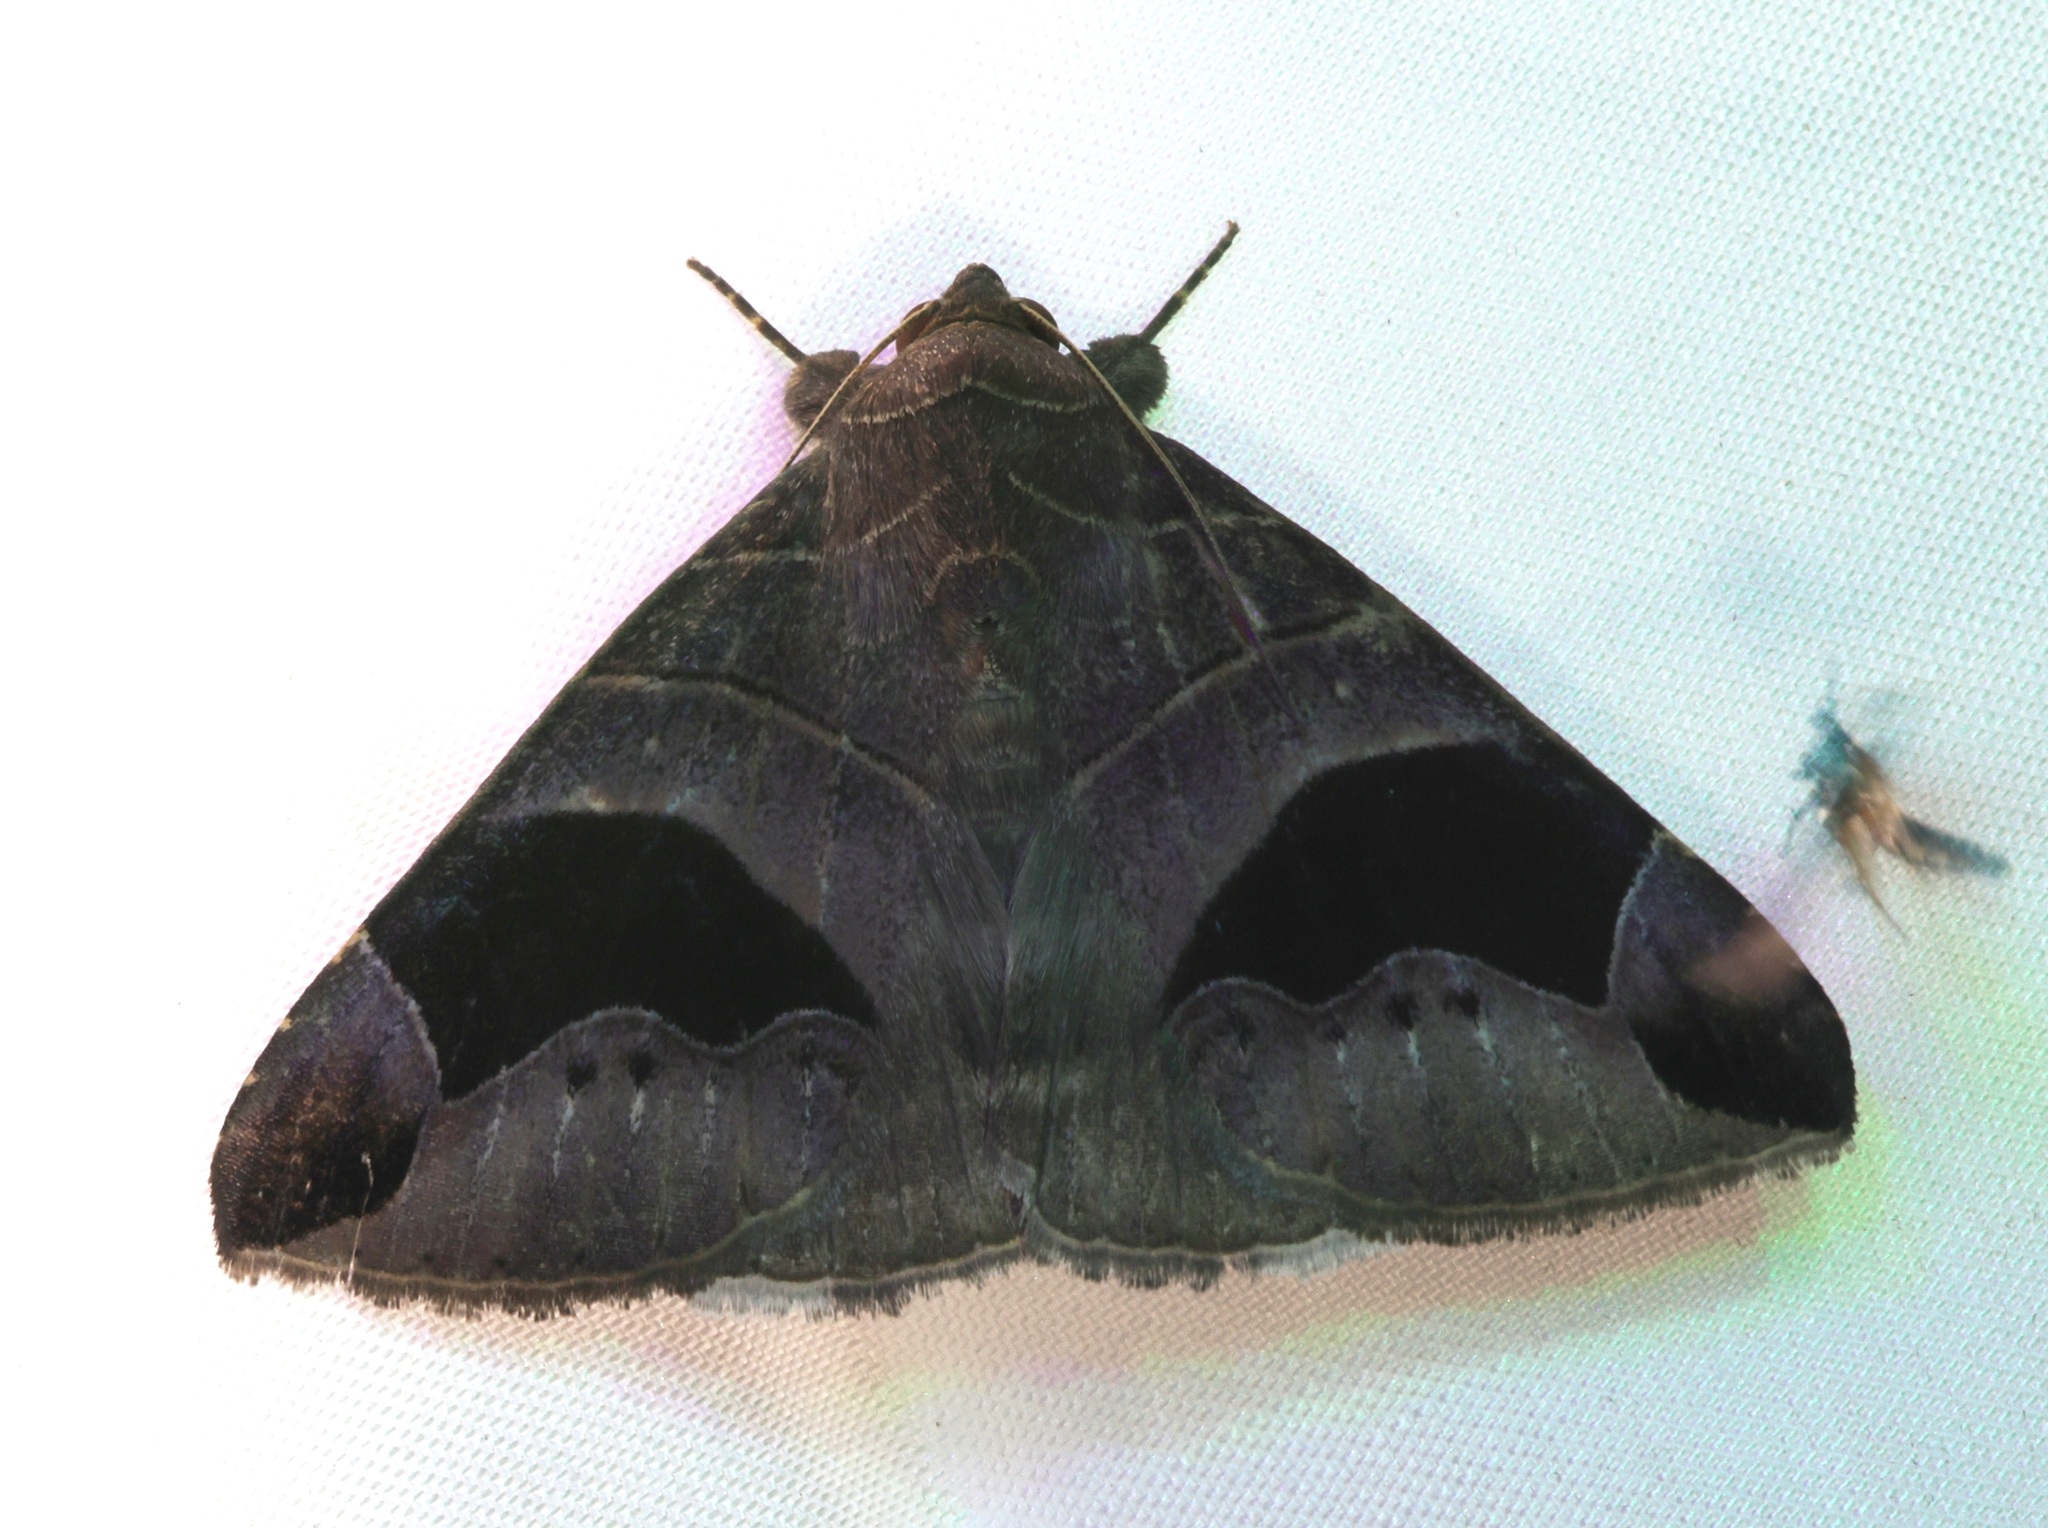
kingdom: Animalia
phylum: Arthropoda
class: Insecta
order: Lepidoptera
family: Erebidae
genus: Bastilla
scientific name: Bastilla joviana
